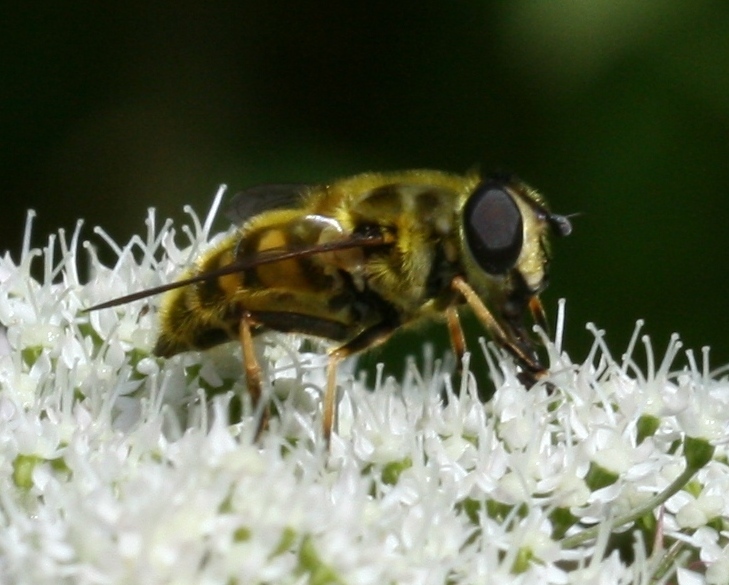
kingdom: Animalia
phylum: Arthropoda
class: Insecta
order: Diptera
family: Syrphidae
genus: Myathropa
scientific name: Myathropa florea
